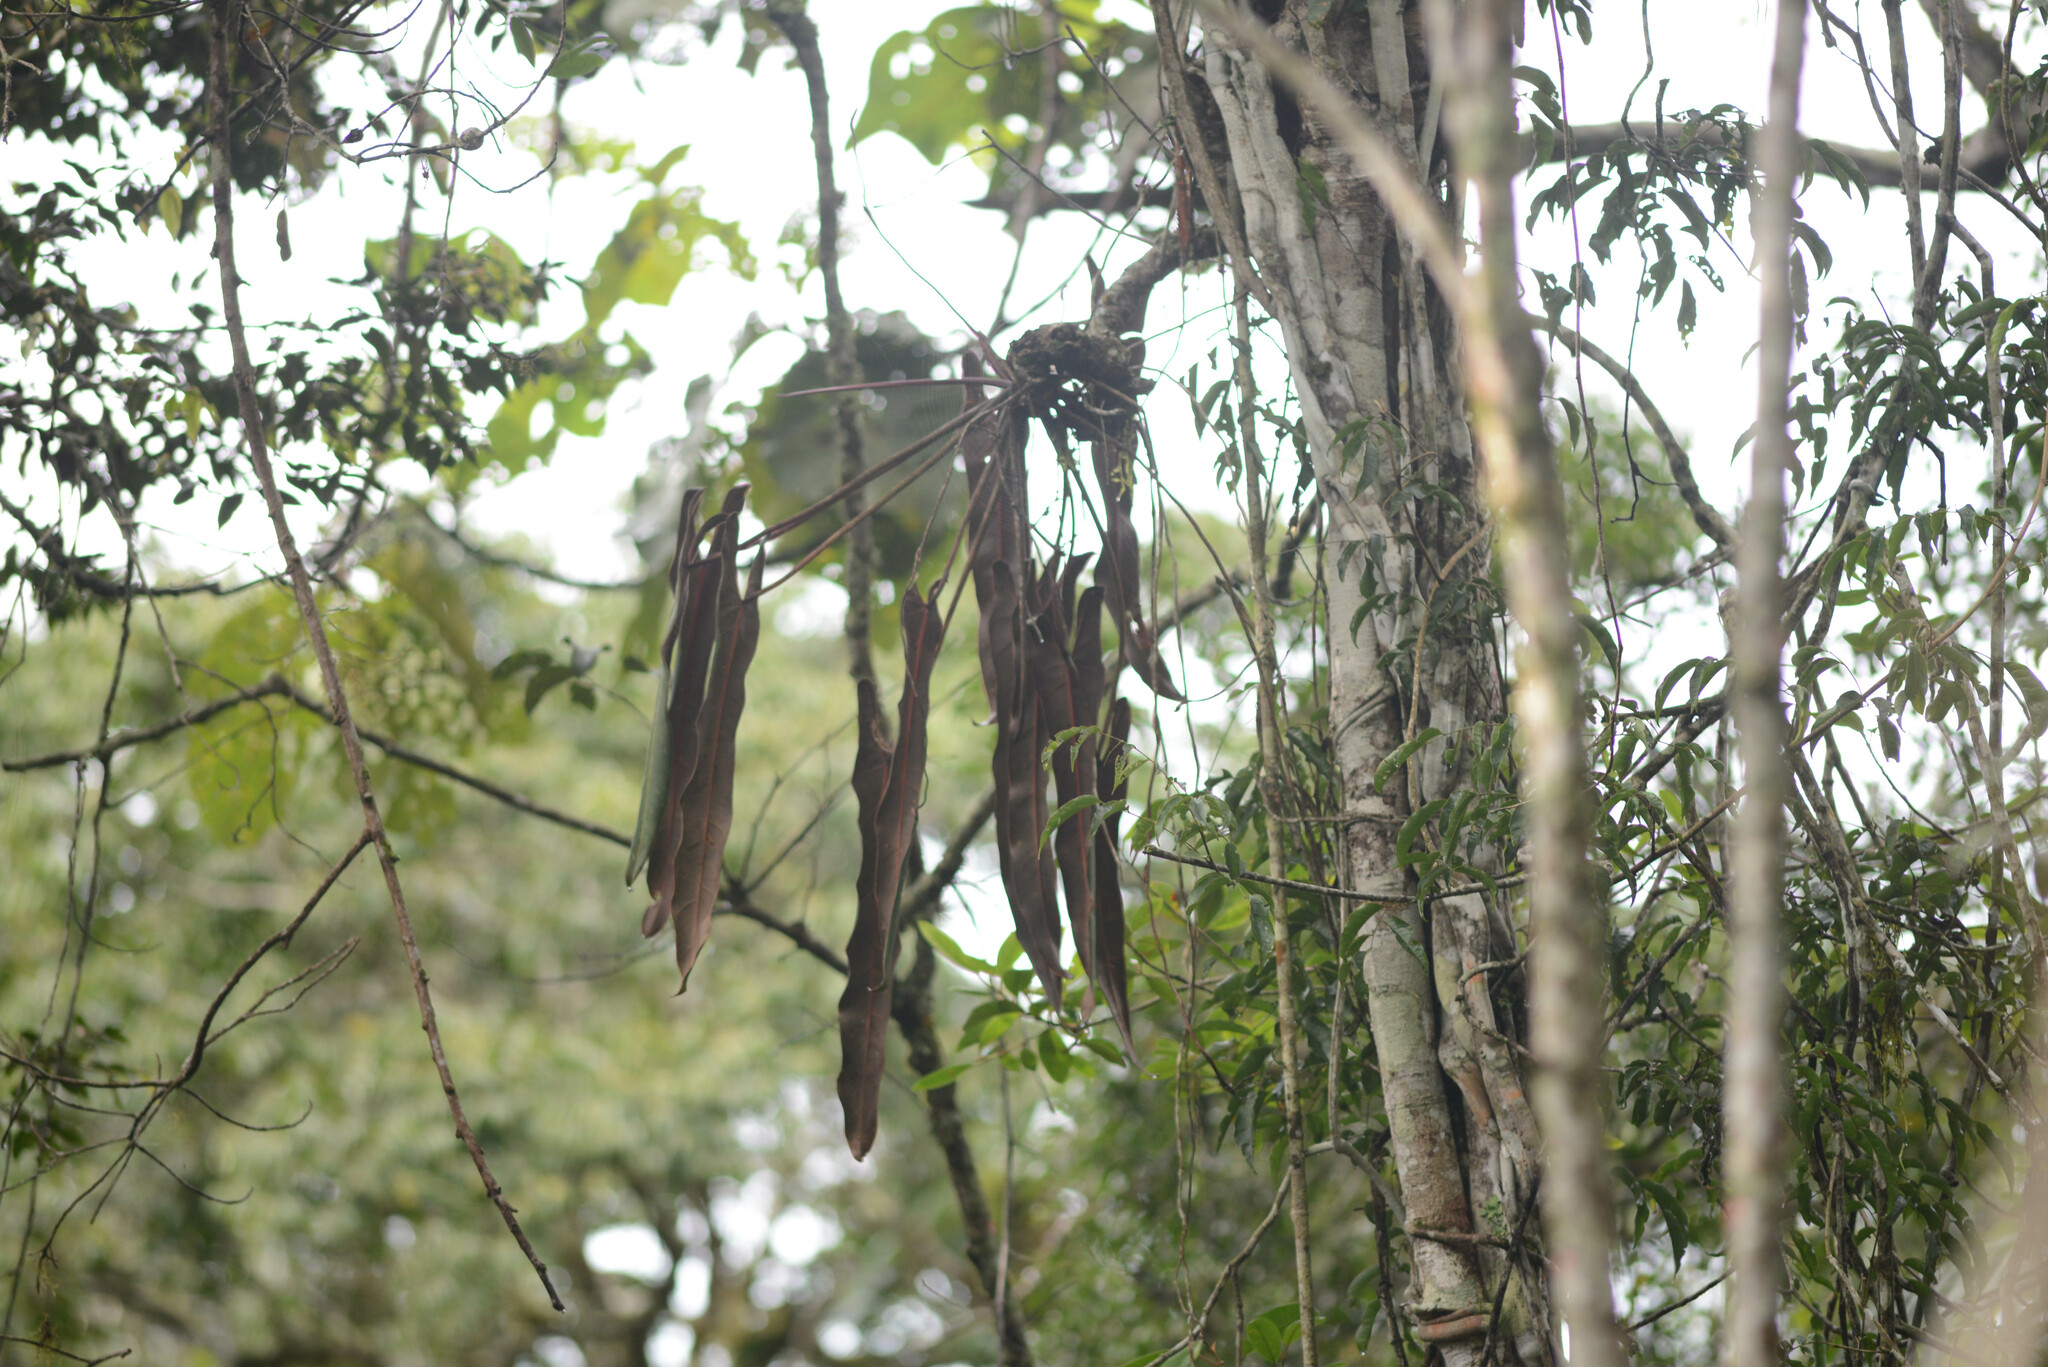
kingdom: Plantae
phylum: Tracheophyta
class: Liliopsida
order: Alismatales
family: Araceae
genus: Philodendron
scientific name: Philodendron spiritus-sancti
